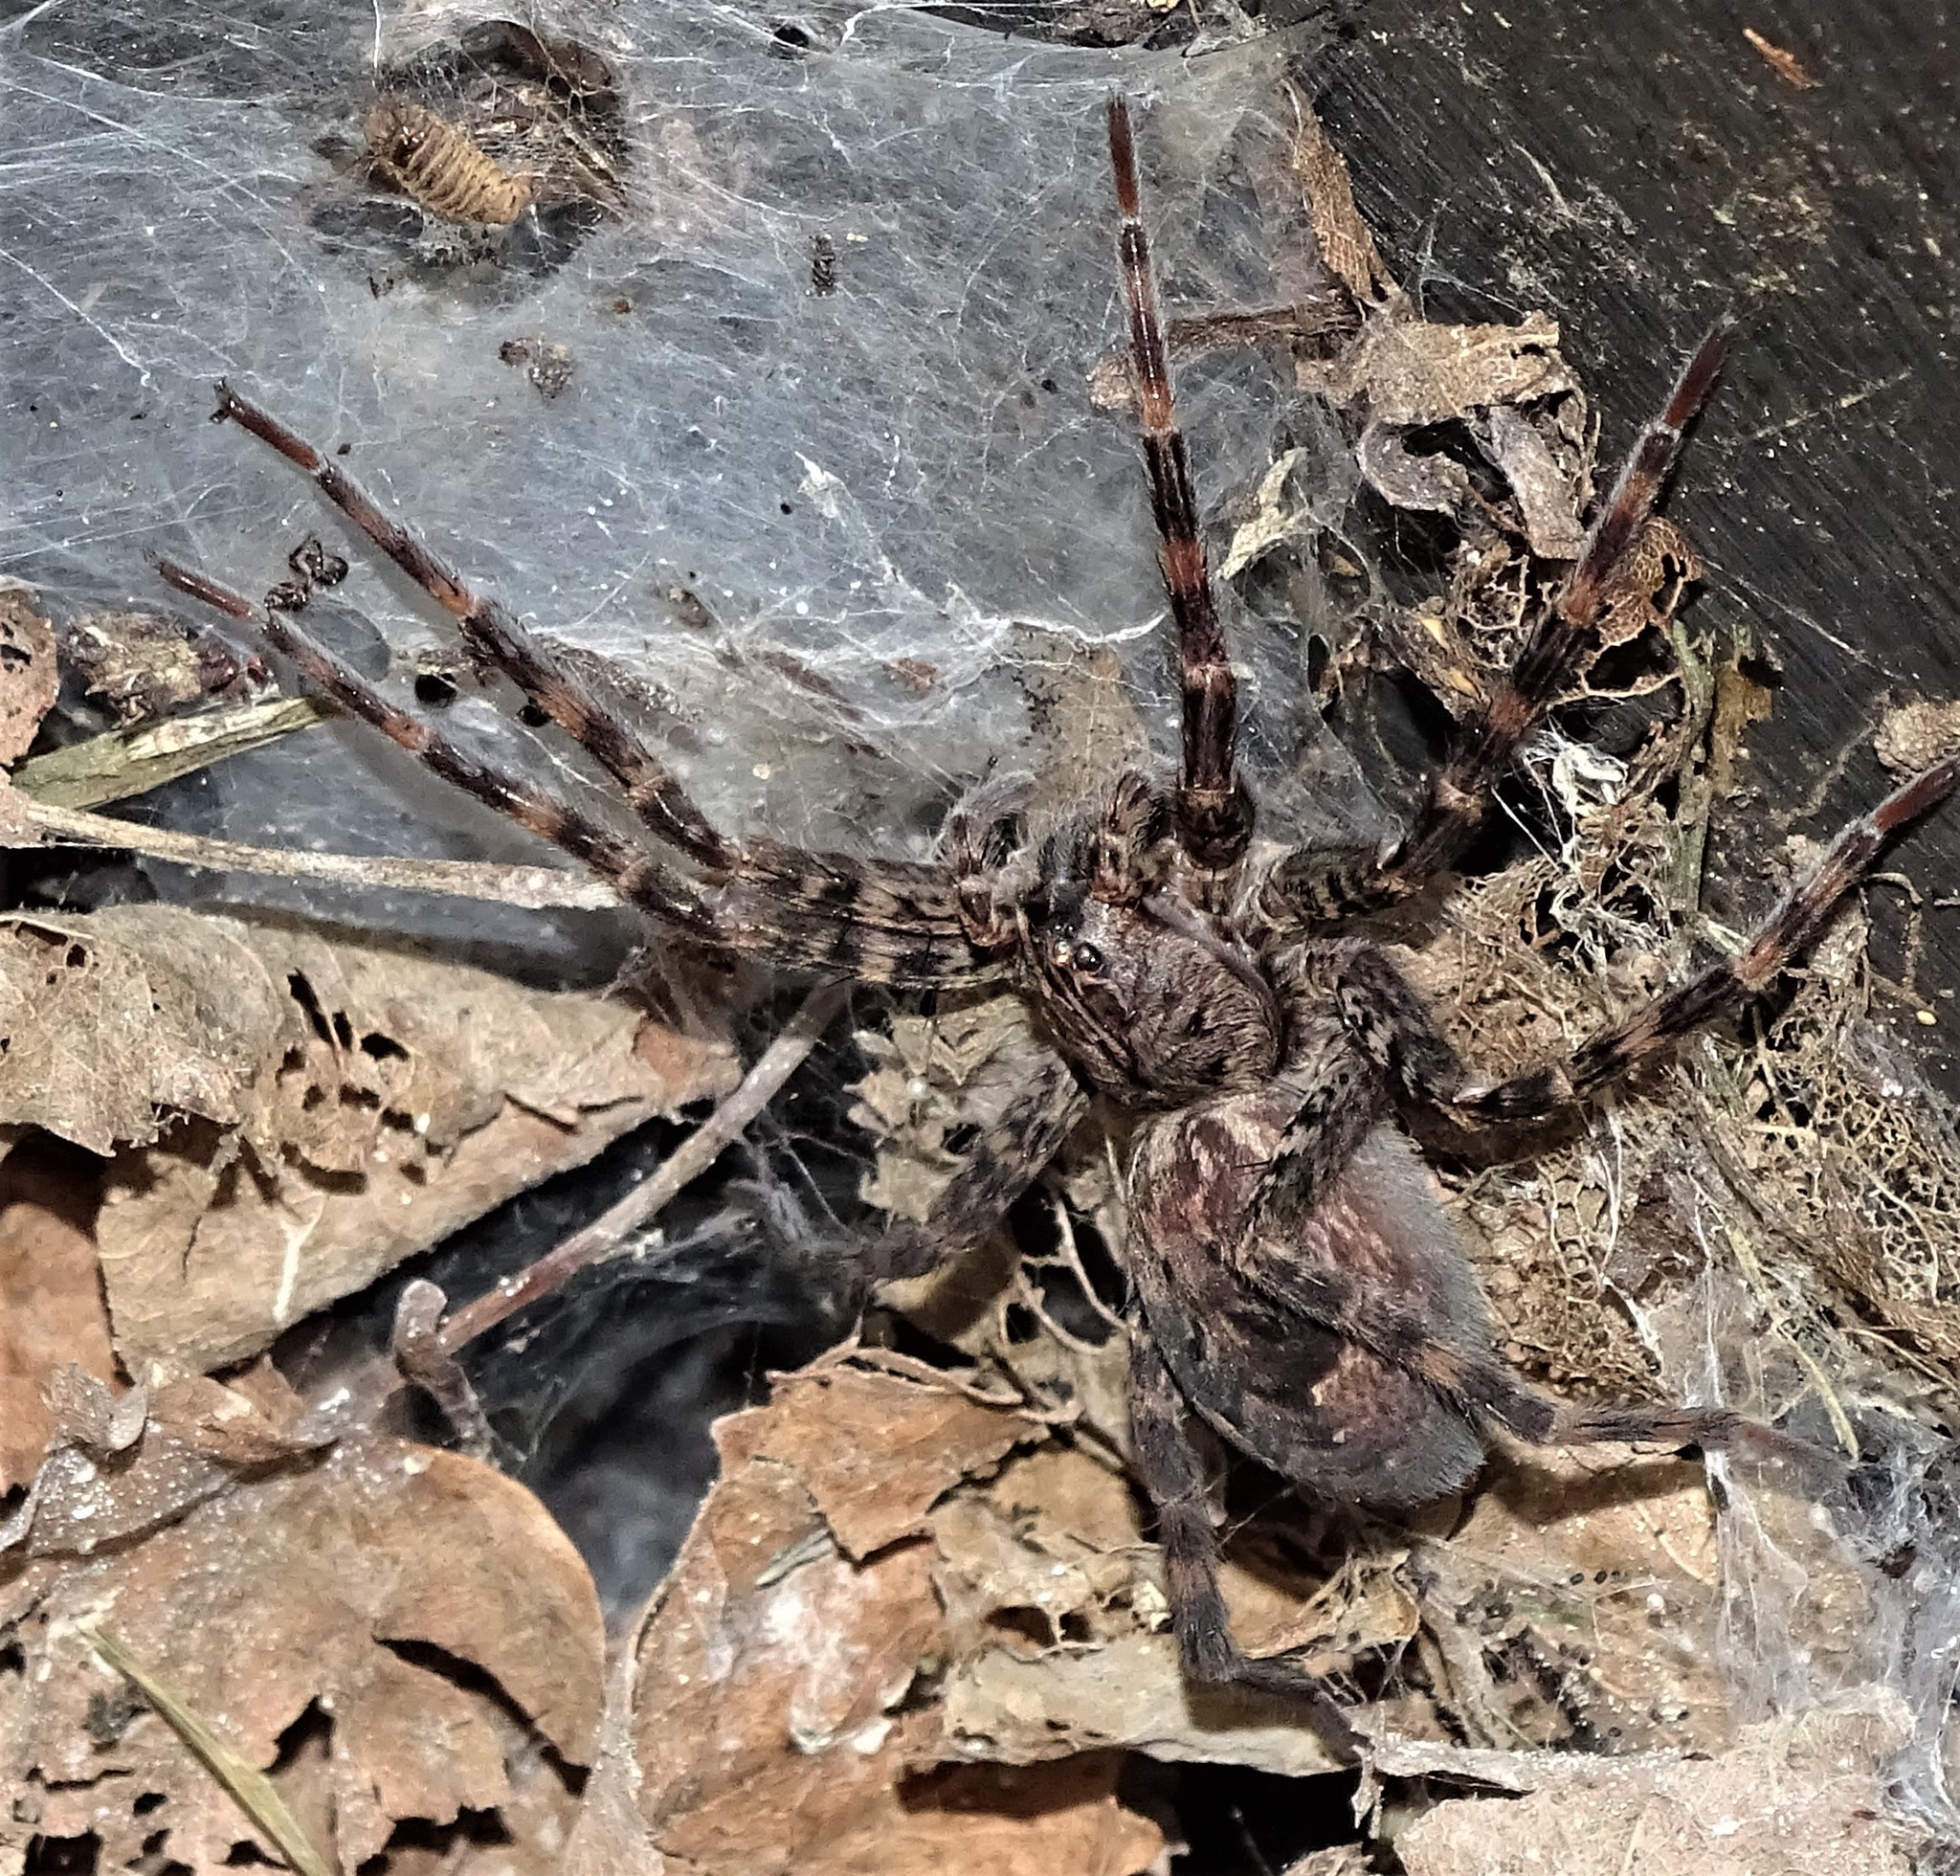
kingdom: Animalia
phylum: Arthropoda
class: Arachnida
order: Araneae
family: Pisauridae
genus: Dolomedes
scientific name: Dolomedes tenebrosus
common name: Dark fishing spider
